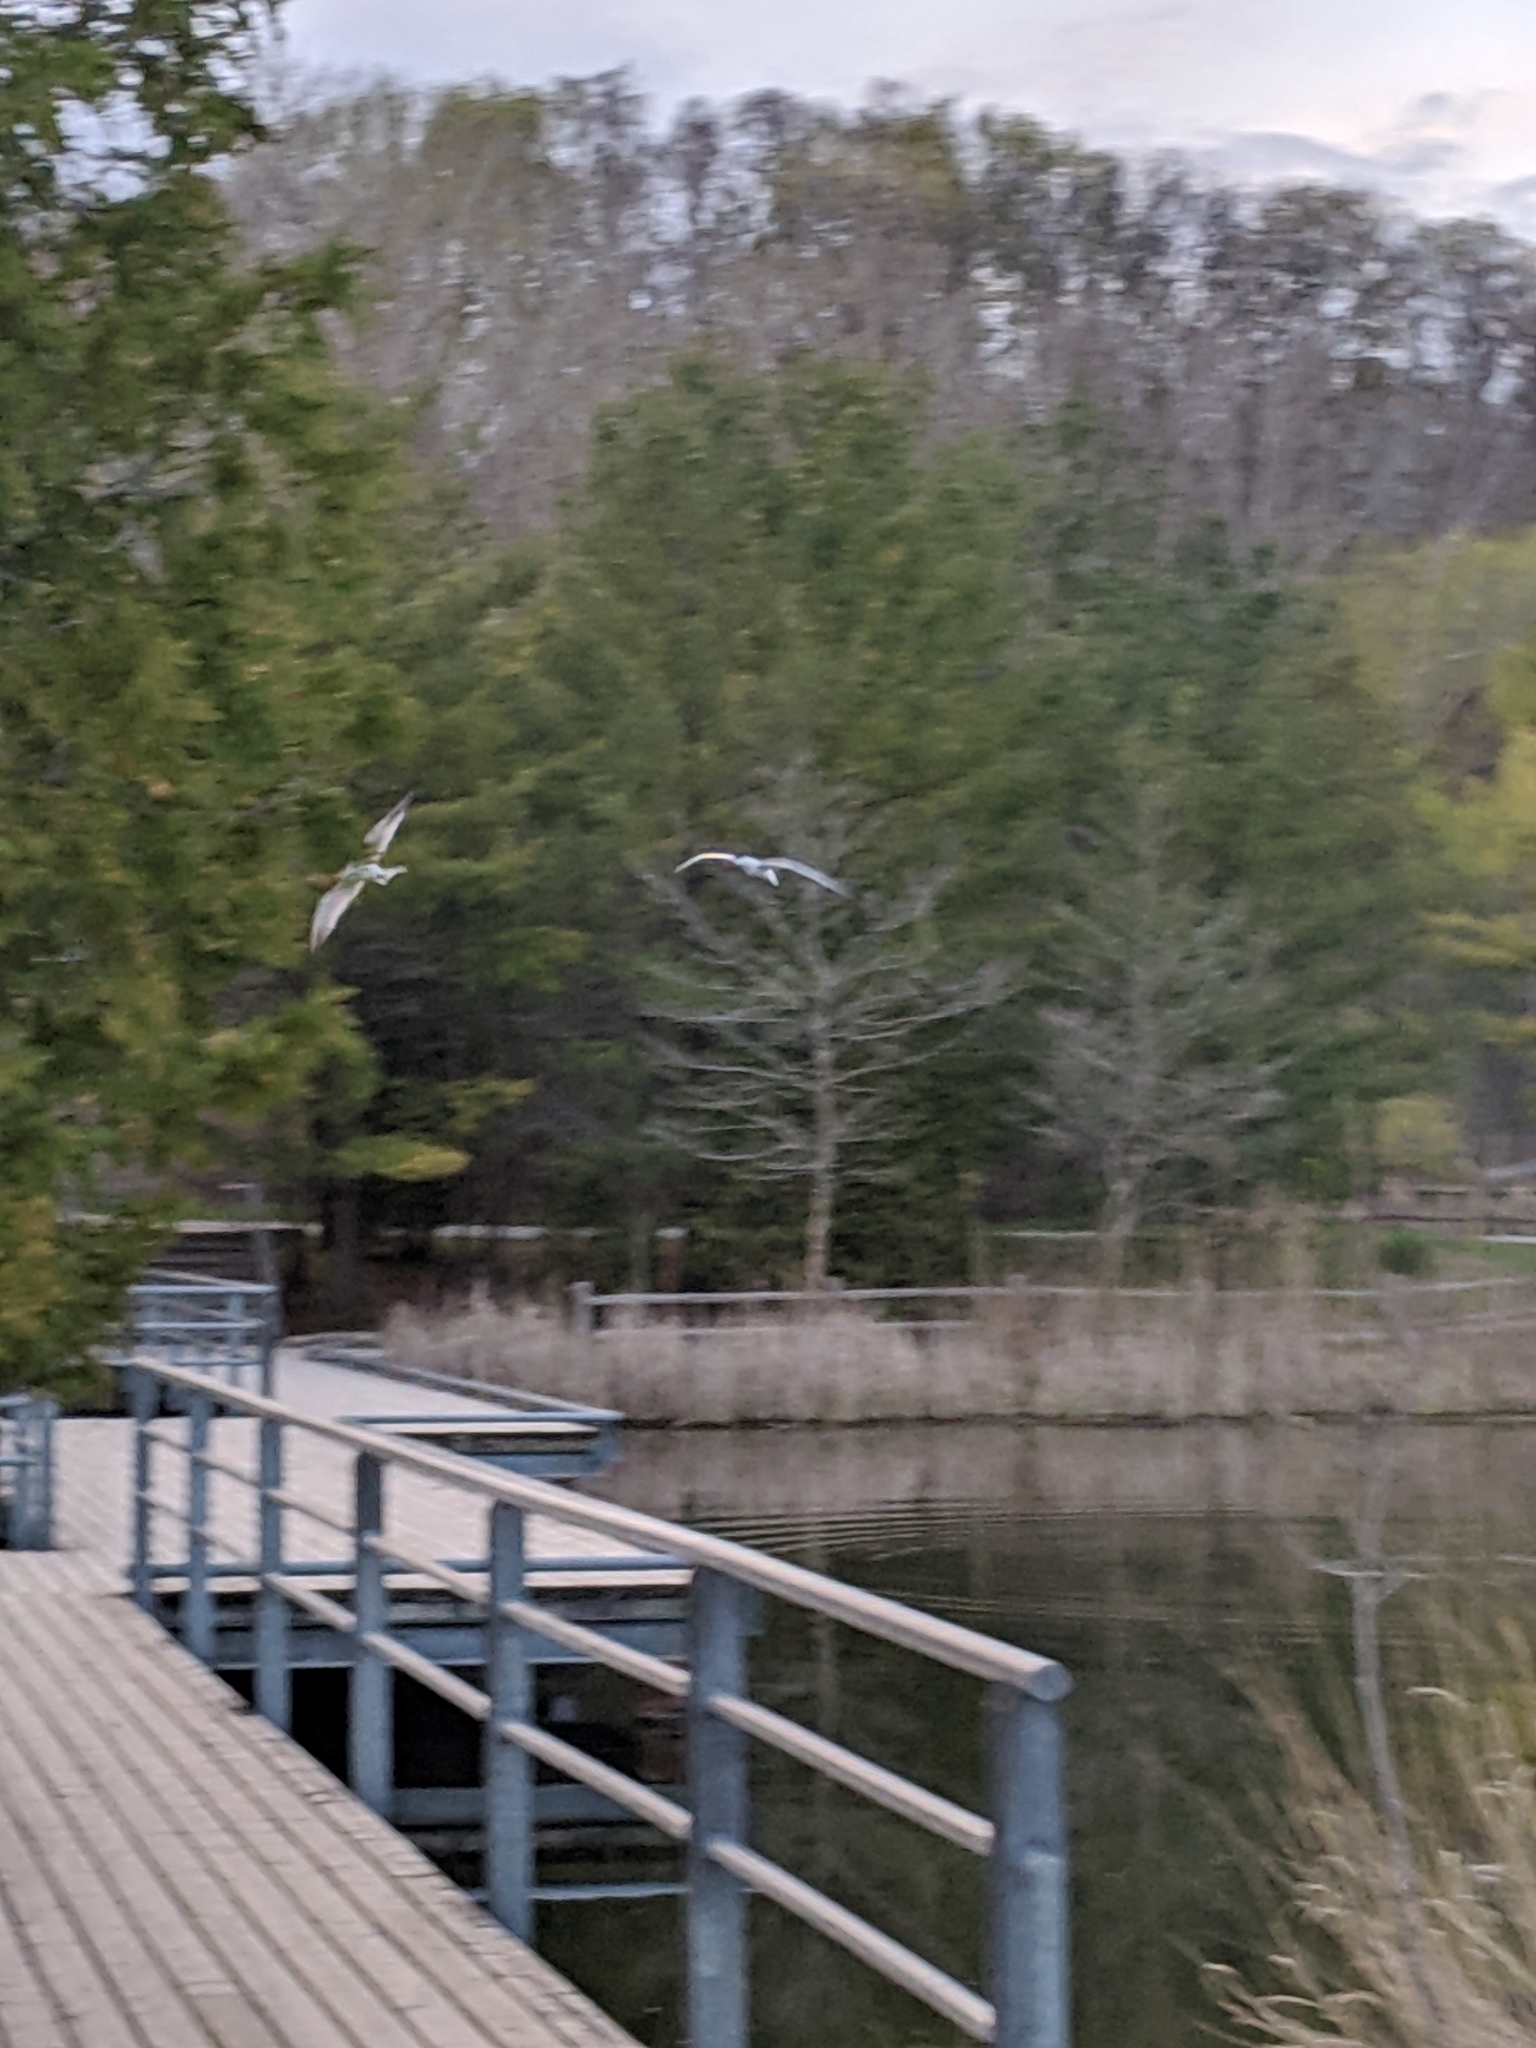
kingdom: Animalia
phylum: Chordata
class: Aves
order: Charadriiformes
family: Laridae
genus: Hydroprogne
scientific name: Hydroprogne caspia
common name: Caspian tern
